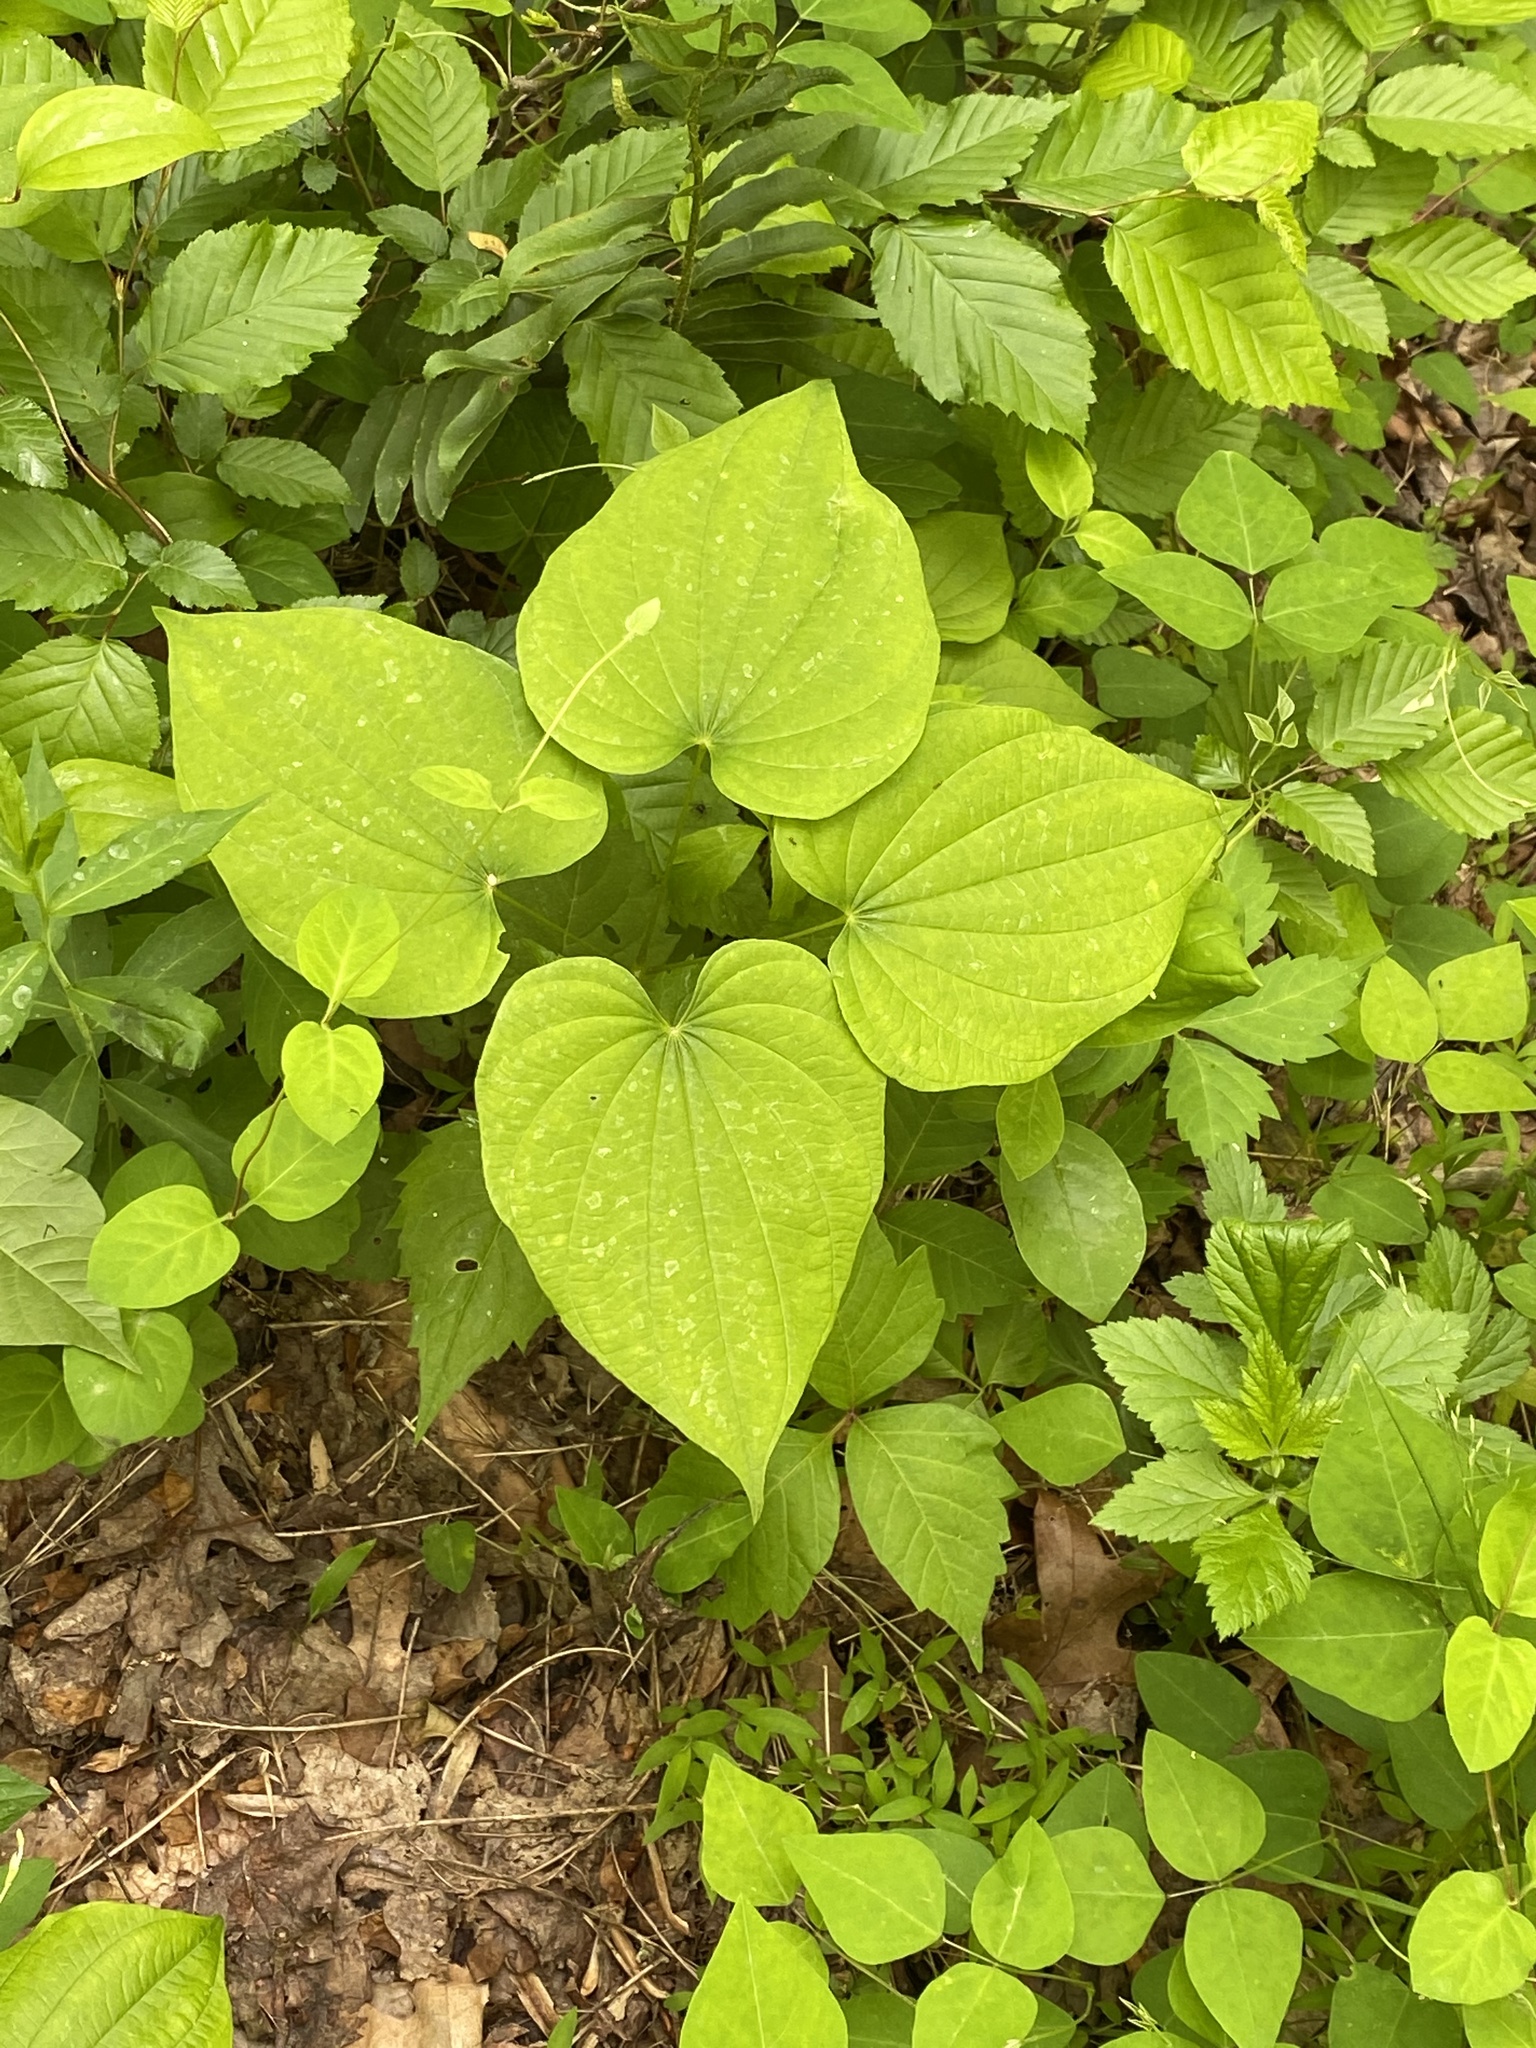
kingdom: Plantae
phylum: Tracheophyta
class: Liliopsida
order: Dioscoreales
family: Dioscoreaceae
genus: Dioscorea
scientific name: Dioscorea villosa
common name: Wild yam
